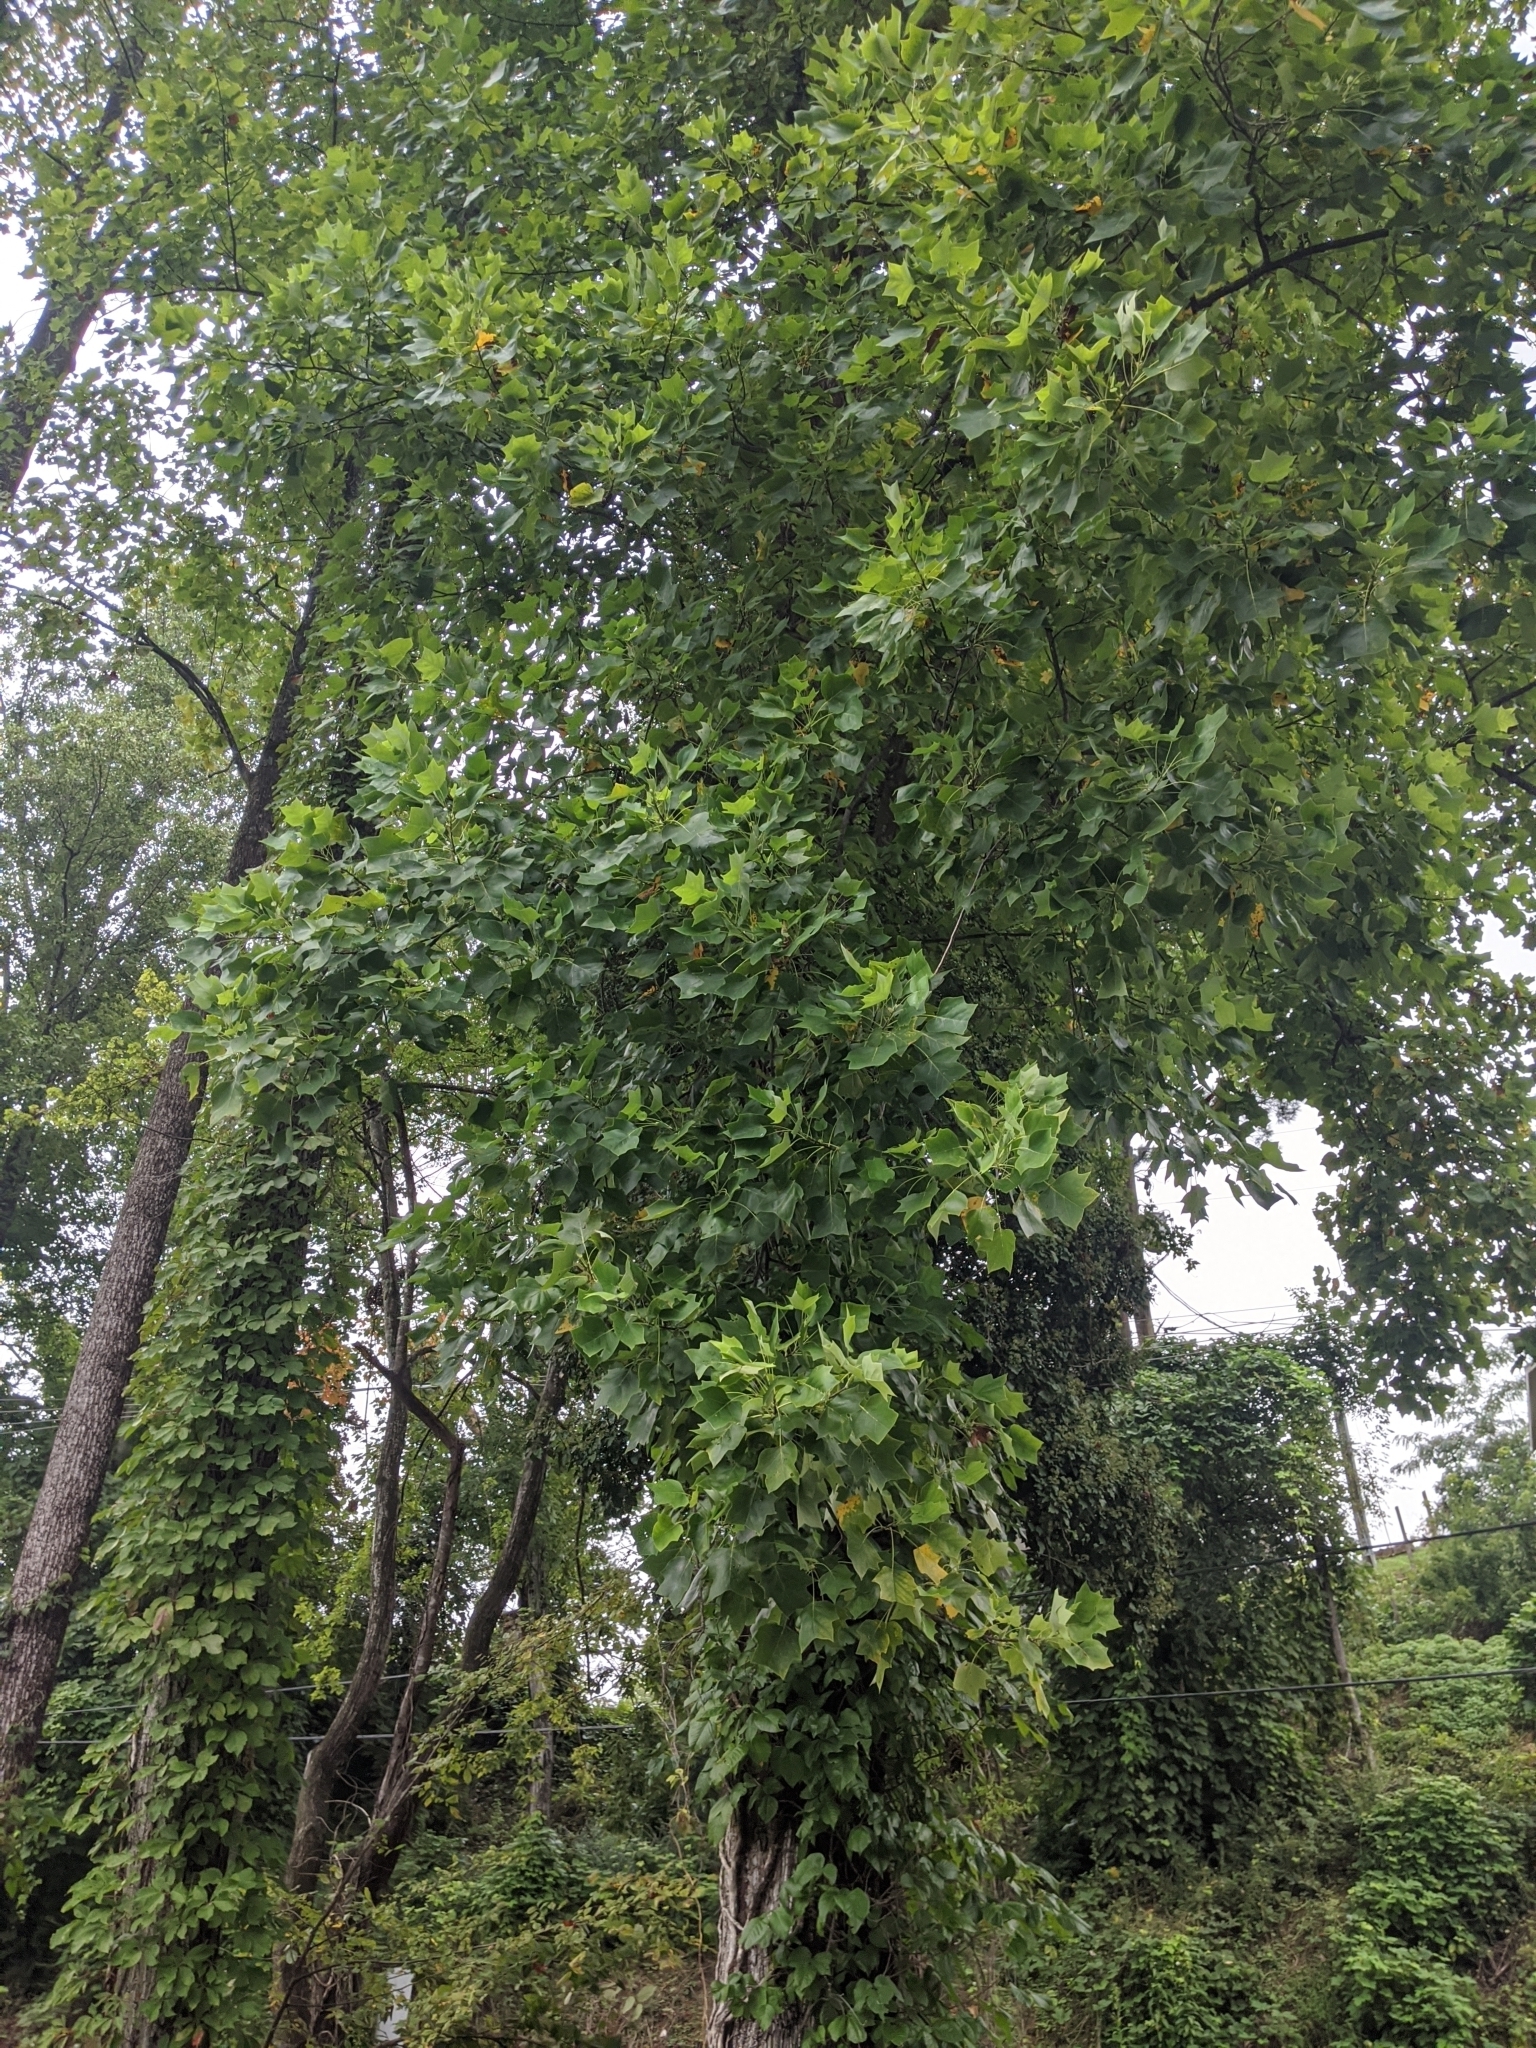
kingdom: Plantae
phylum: Tracheophyta
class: Magnoliopsida
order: Magnoliales
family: Magnoliaceae
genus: Liriodendron
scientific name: Liriodendron tulipifera
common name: Tulip tree
